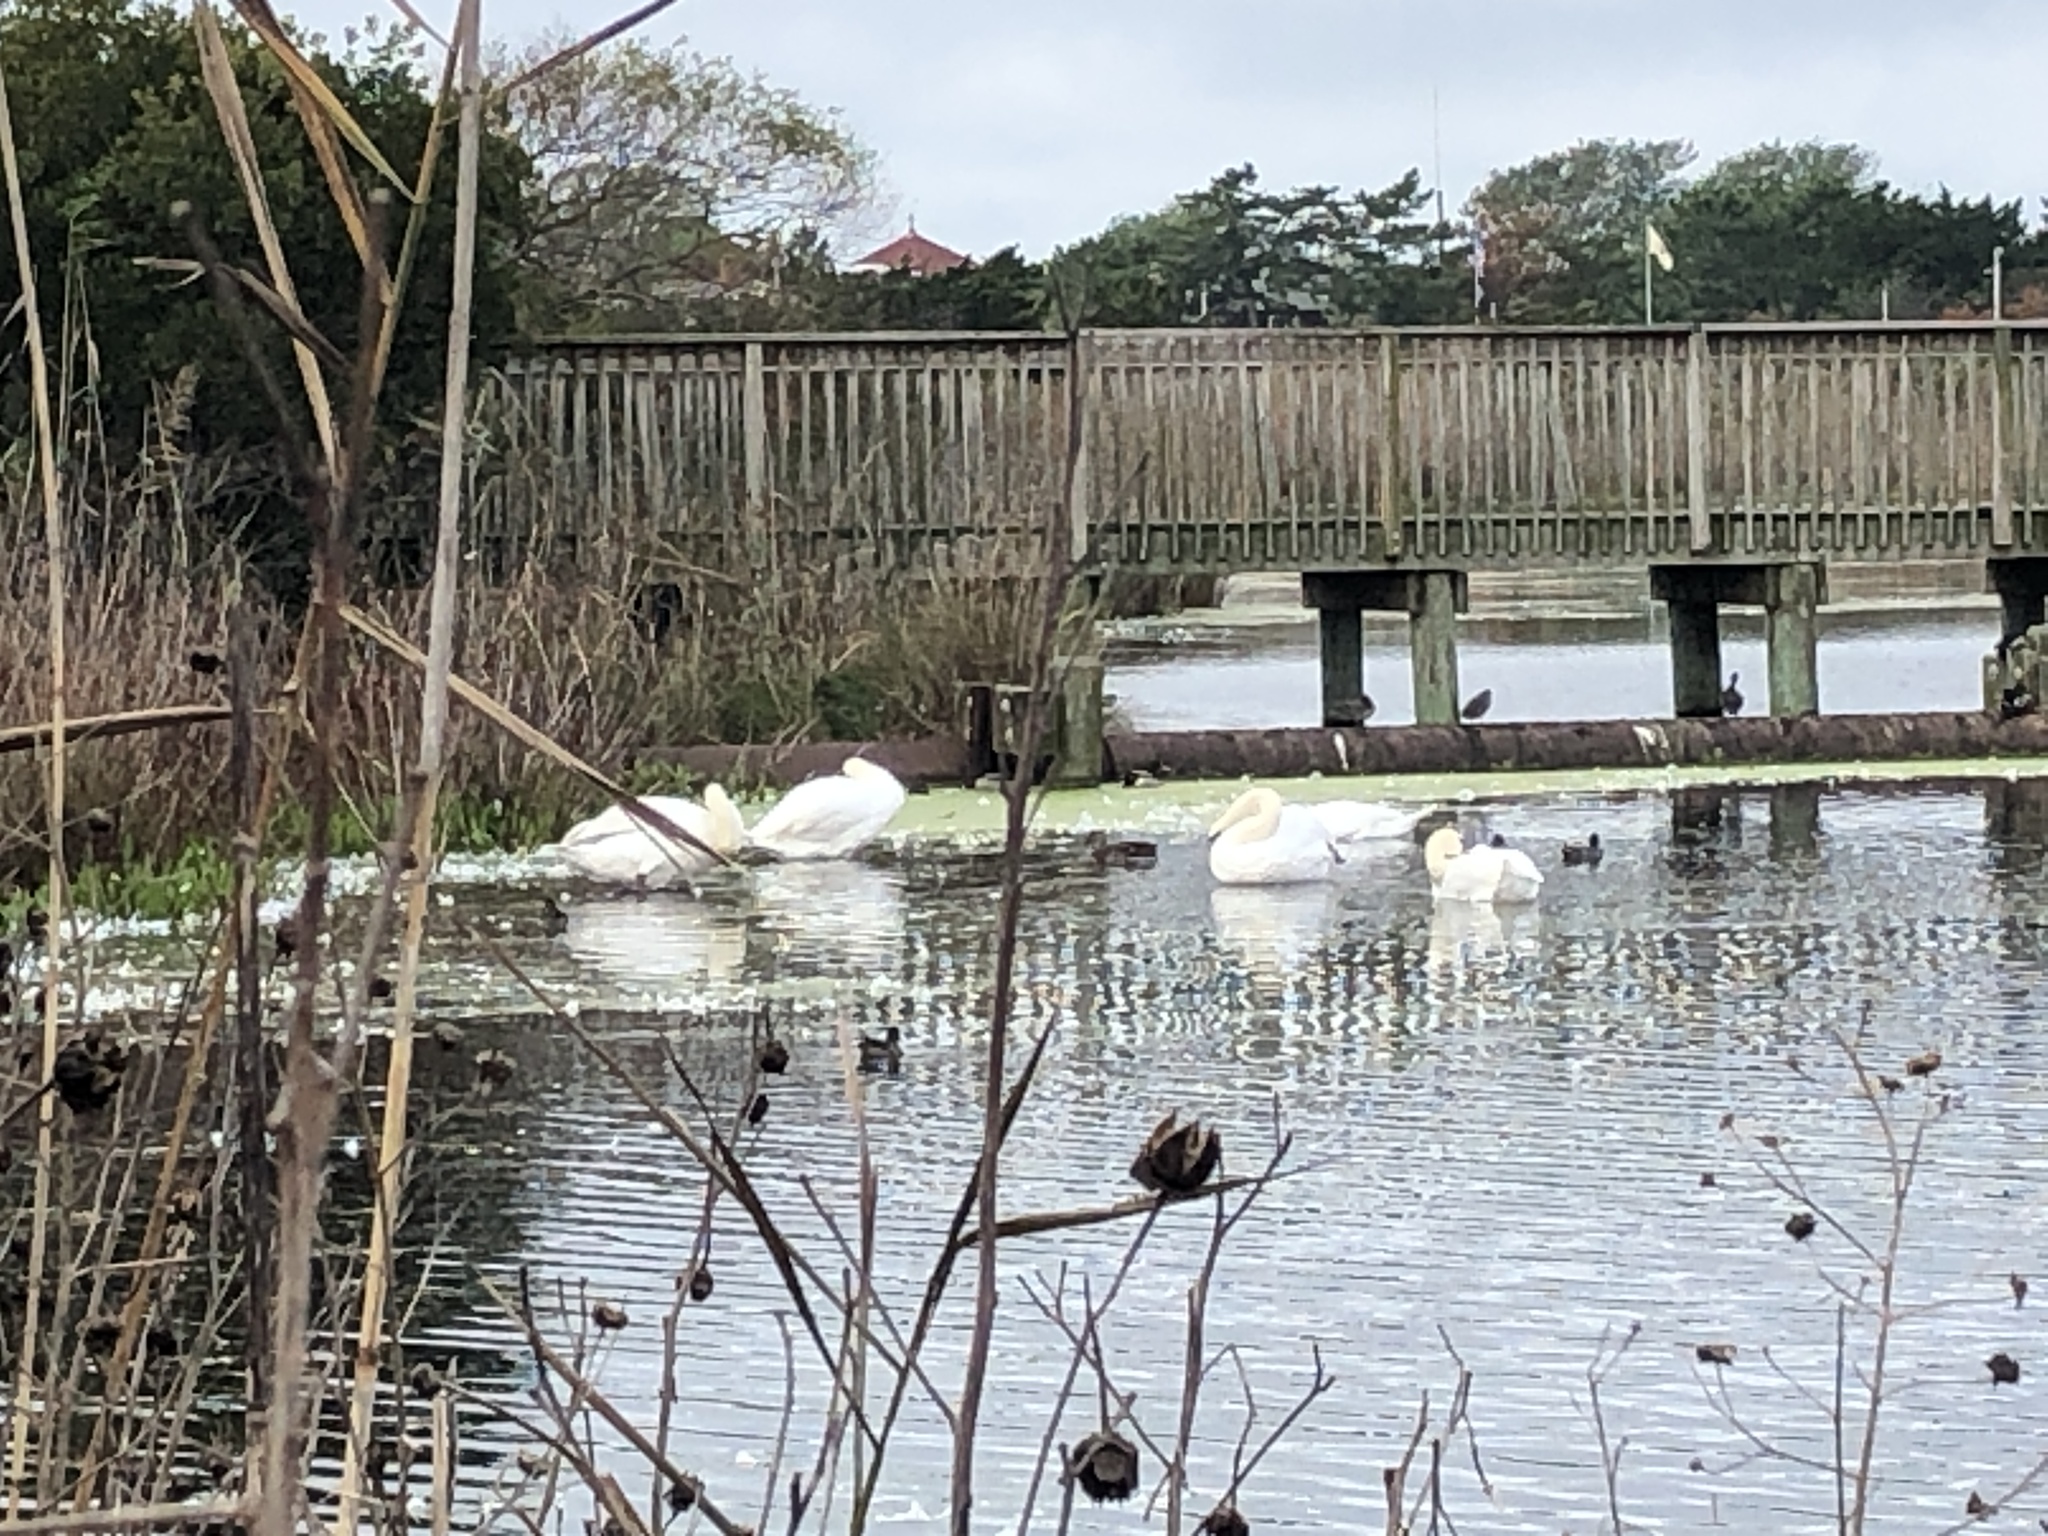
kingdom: Animalia
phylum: Chordata
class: Aves
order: Anseriformes
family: Anatidae
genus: Cygnus
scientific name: Cygnus olor
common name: Mute swan
